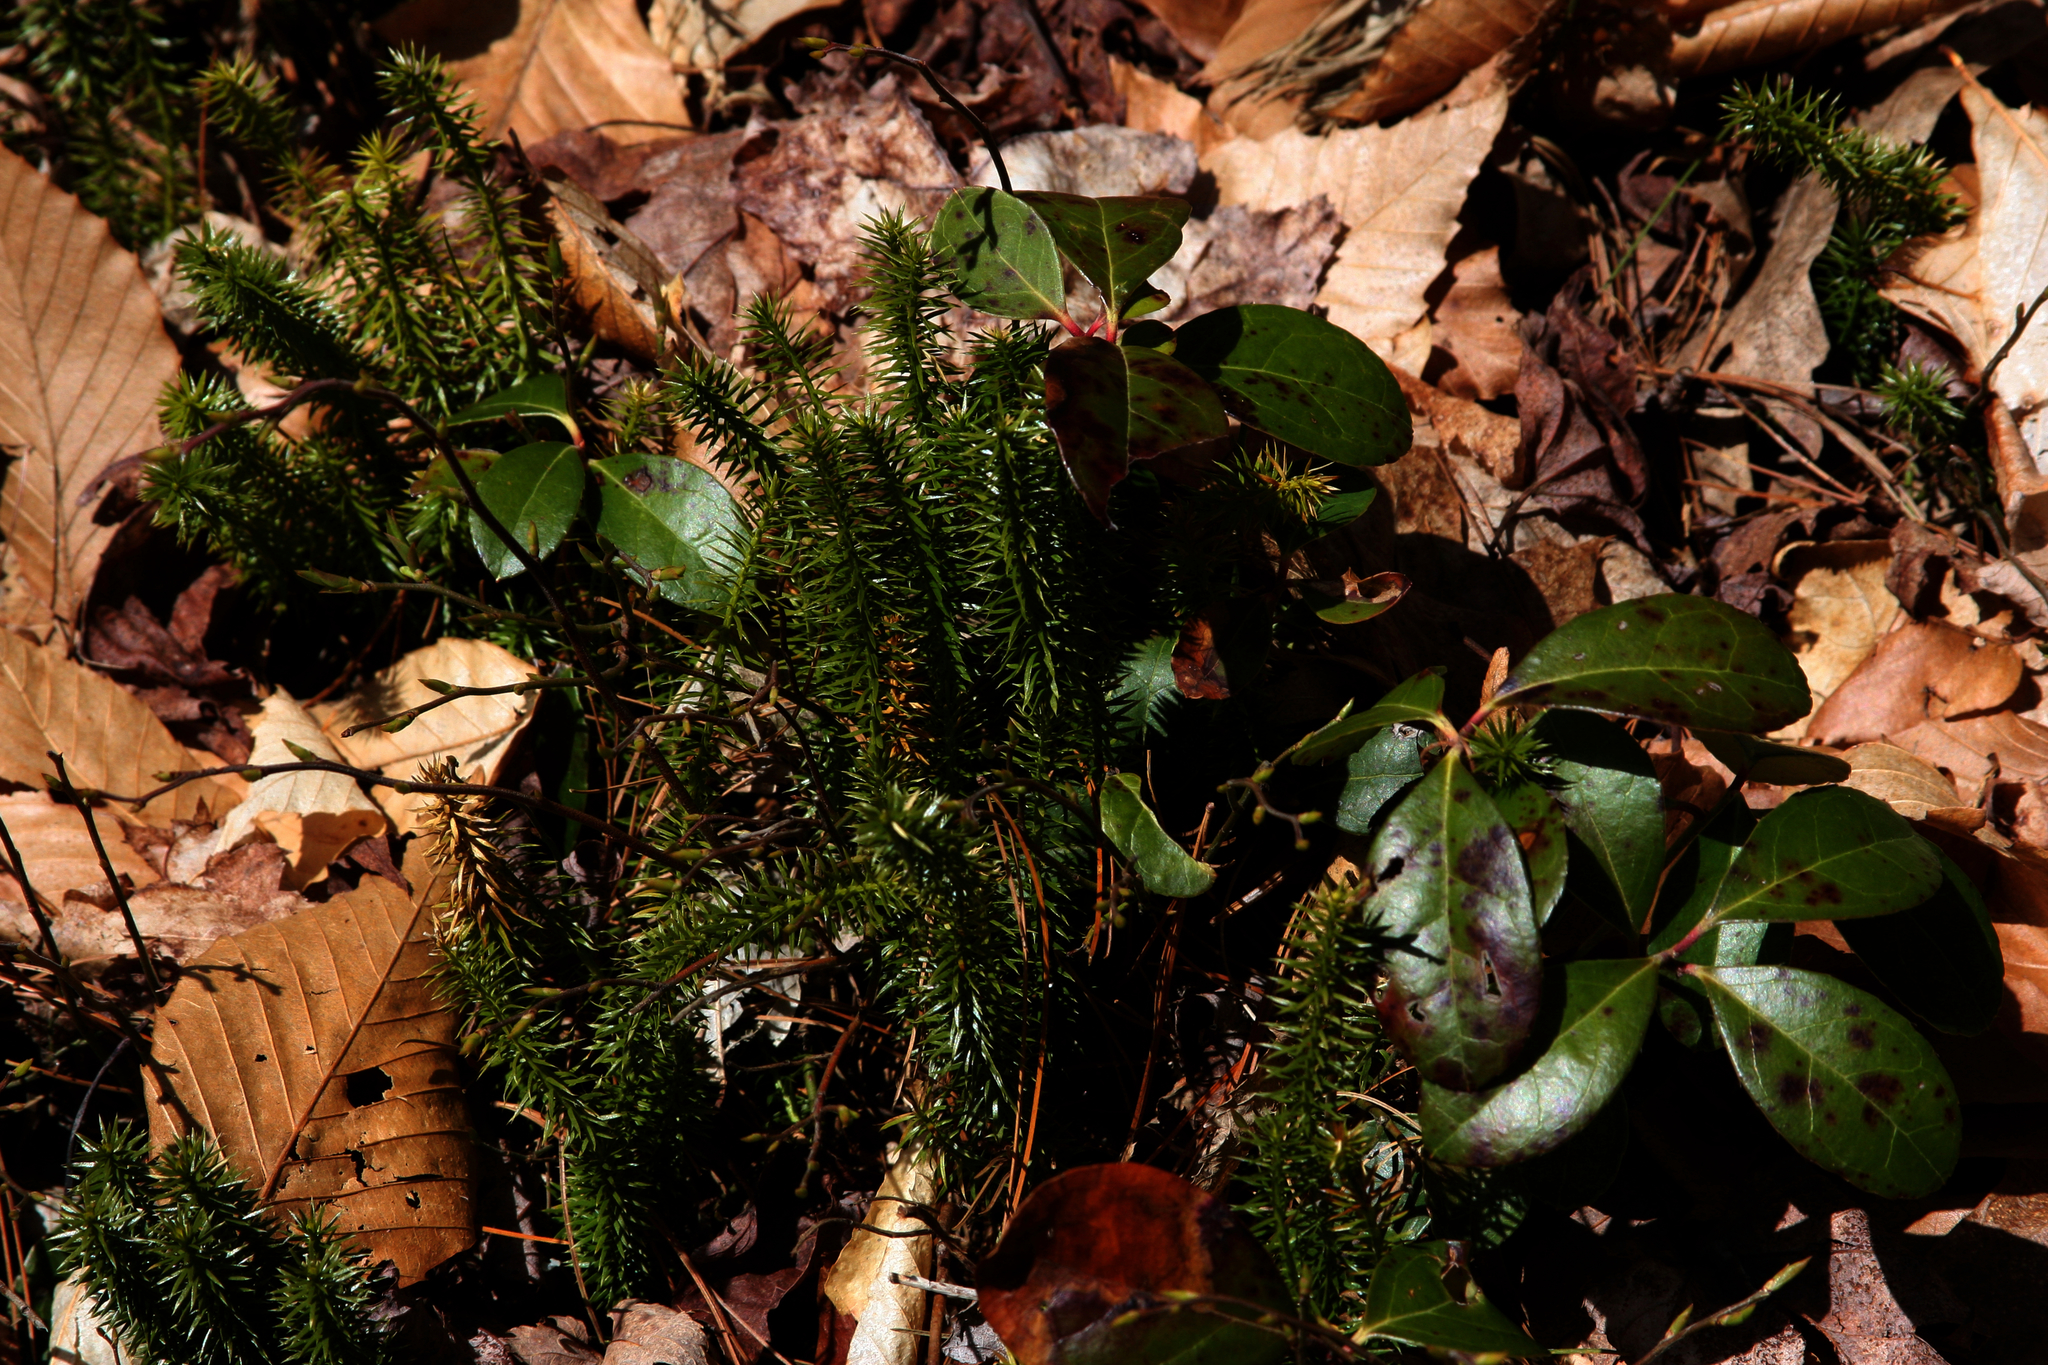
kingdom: Plantae
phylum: Tracheophyta
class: Magnoliopsida
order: Ericales
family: Ericaceae
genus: Gaultheria
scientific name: Gaultheria procumbens
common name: Checkerberry
